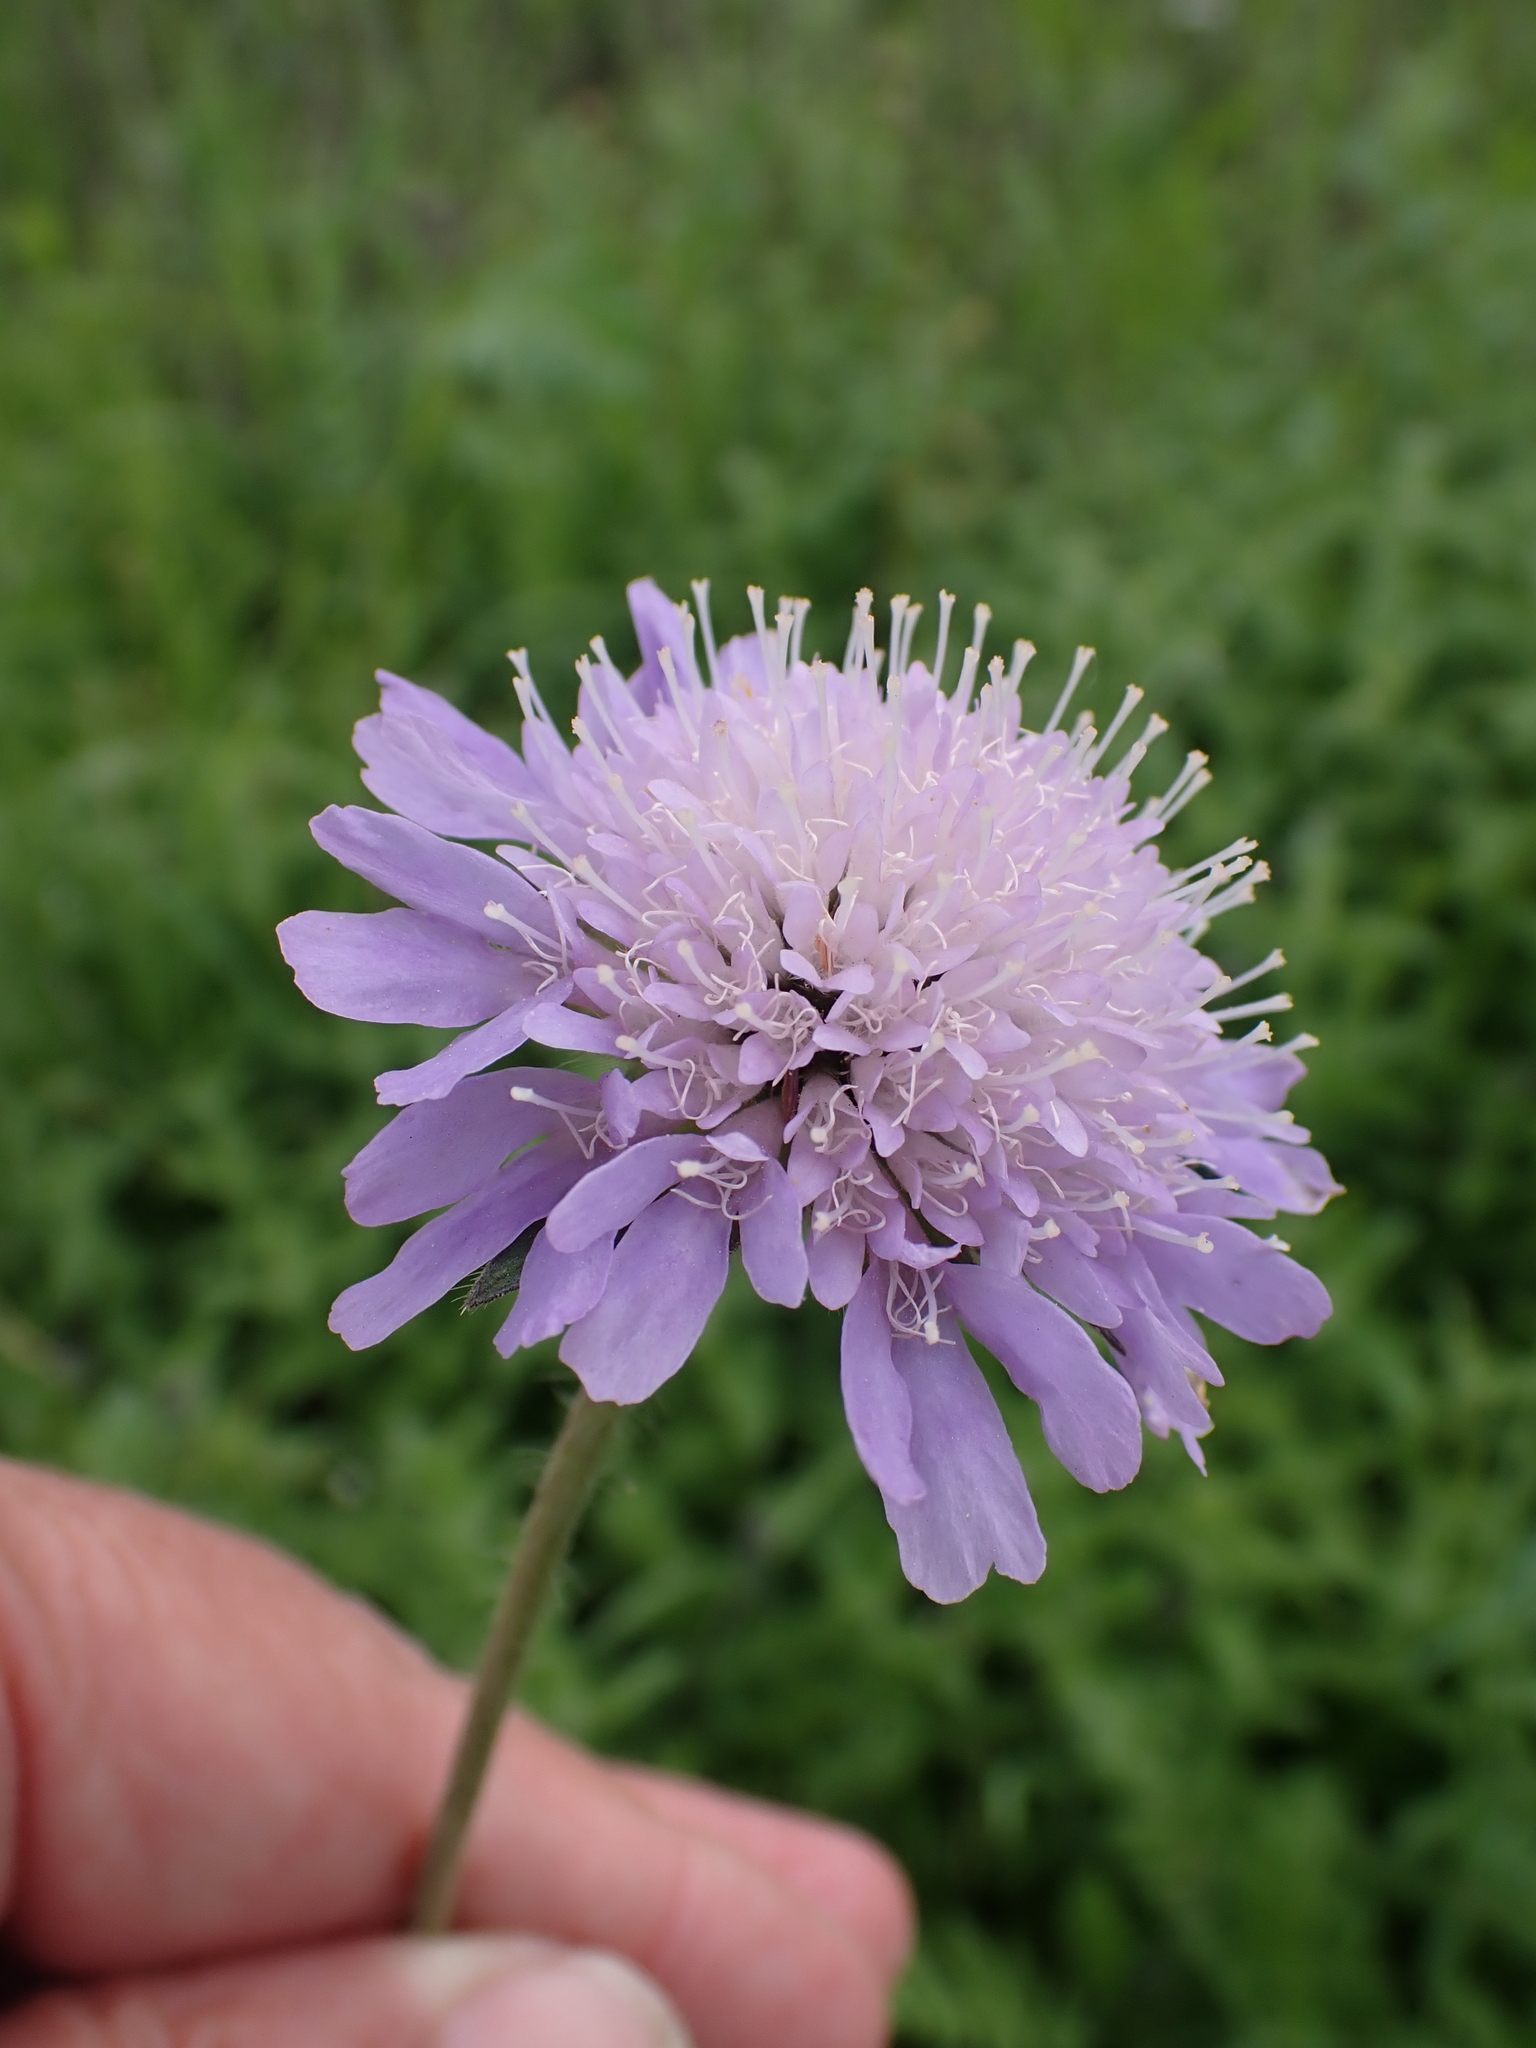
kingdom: Plantae
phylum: Tracheophyta
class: Magnoliopsida
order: Dipsacales
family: Caprifoliaceae
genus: Knautia
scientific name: Knautia arvensis
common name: Field scabiosa
